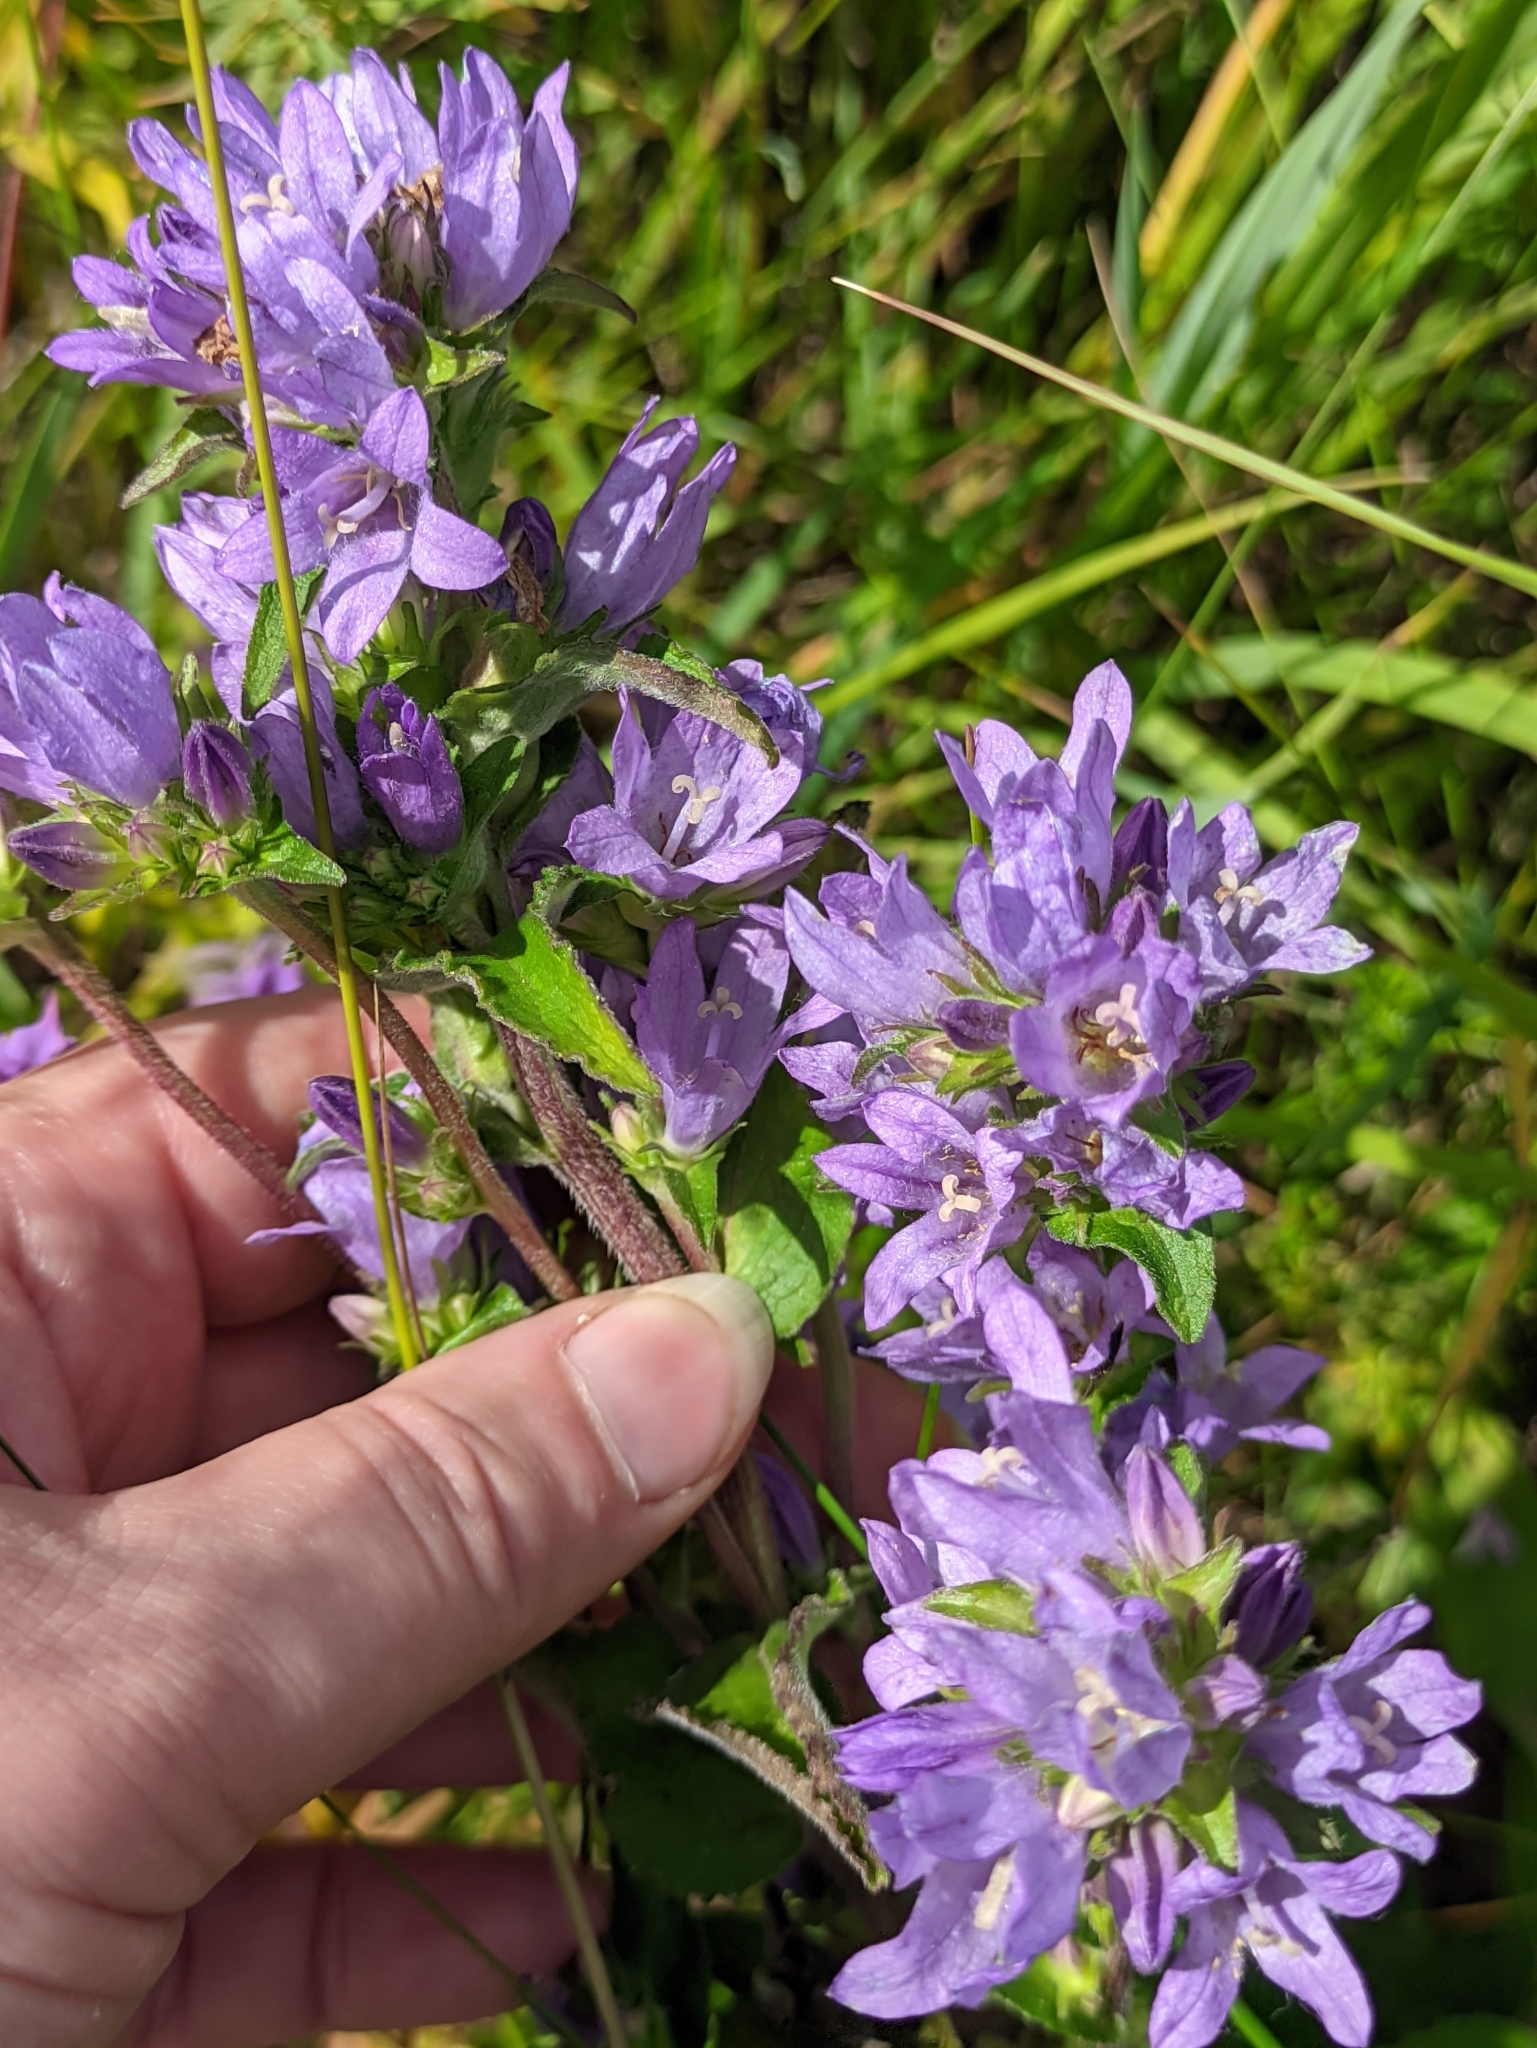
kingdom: Plantae
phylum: Tracheophyta
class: Magnoliopsida
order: Asterales
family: Campanulaceae
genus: Campanula
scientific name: Campanula glomerata
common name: Clustered bellflower
